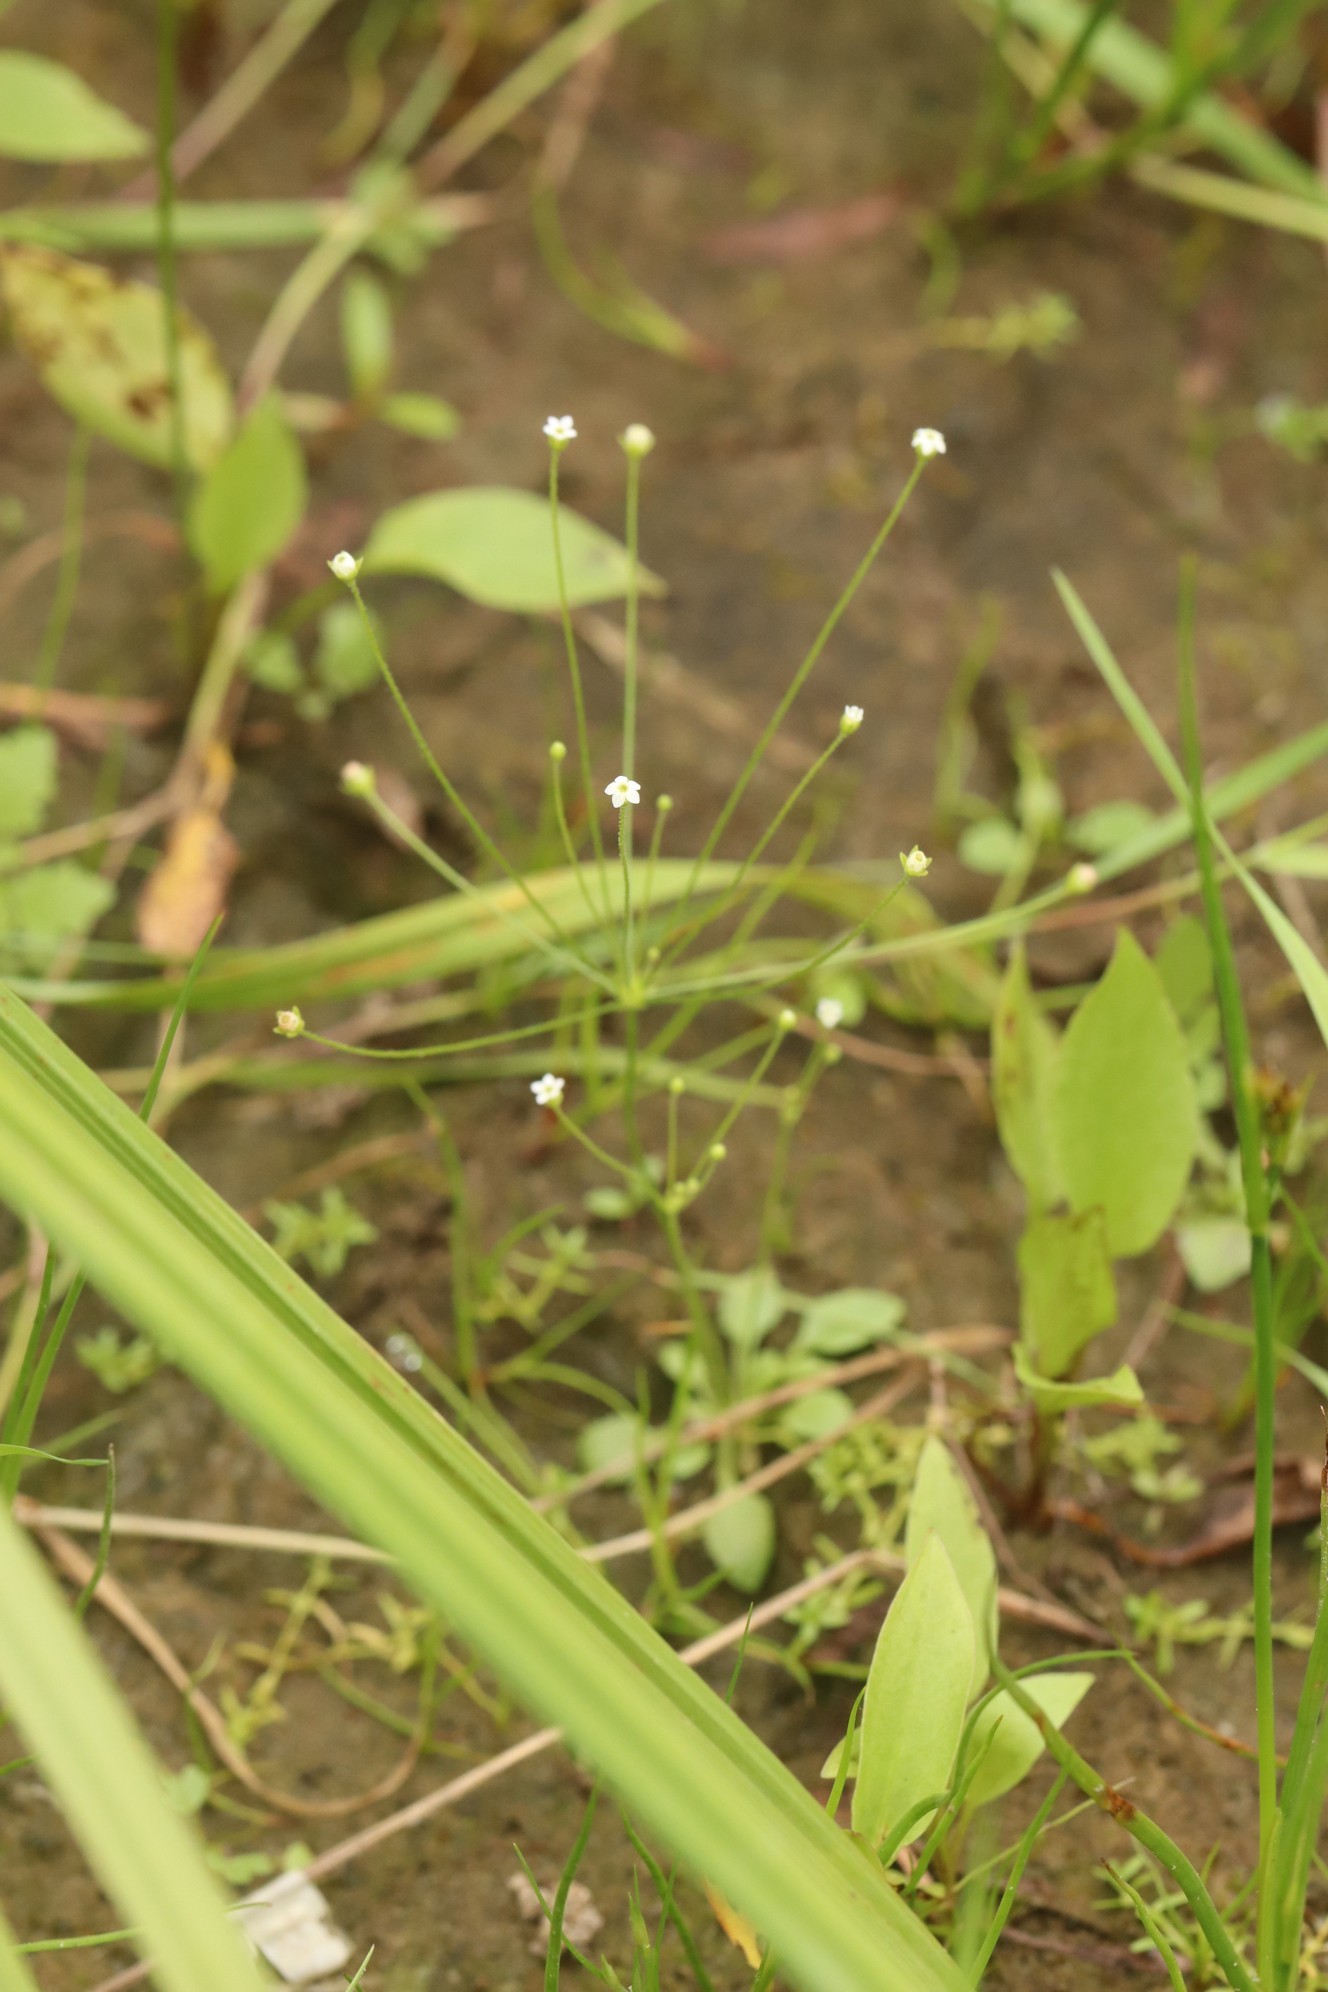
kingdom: Plantae
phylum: Tracheophyta
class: Magnoliopsida
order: Ericales
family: Primulaceae
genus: Androsace
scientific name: Androsace filiformis
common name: Filiform rock jasmine
